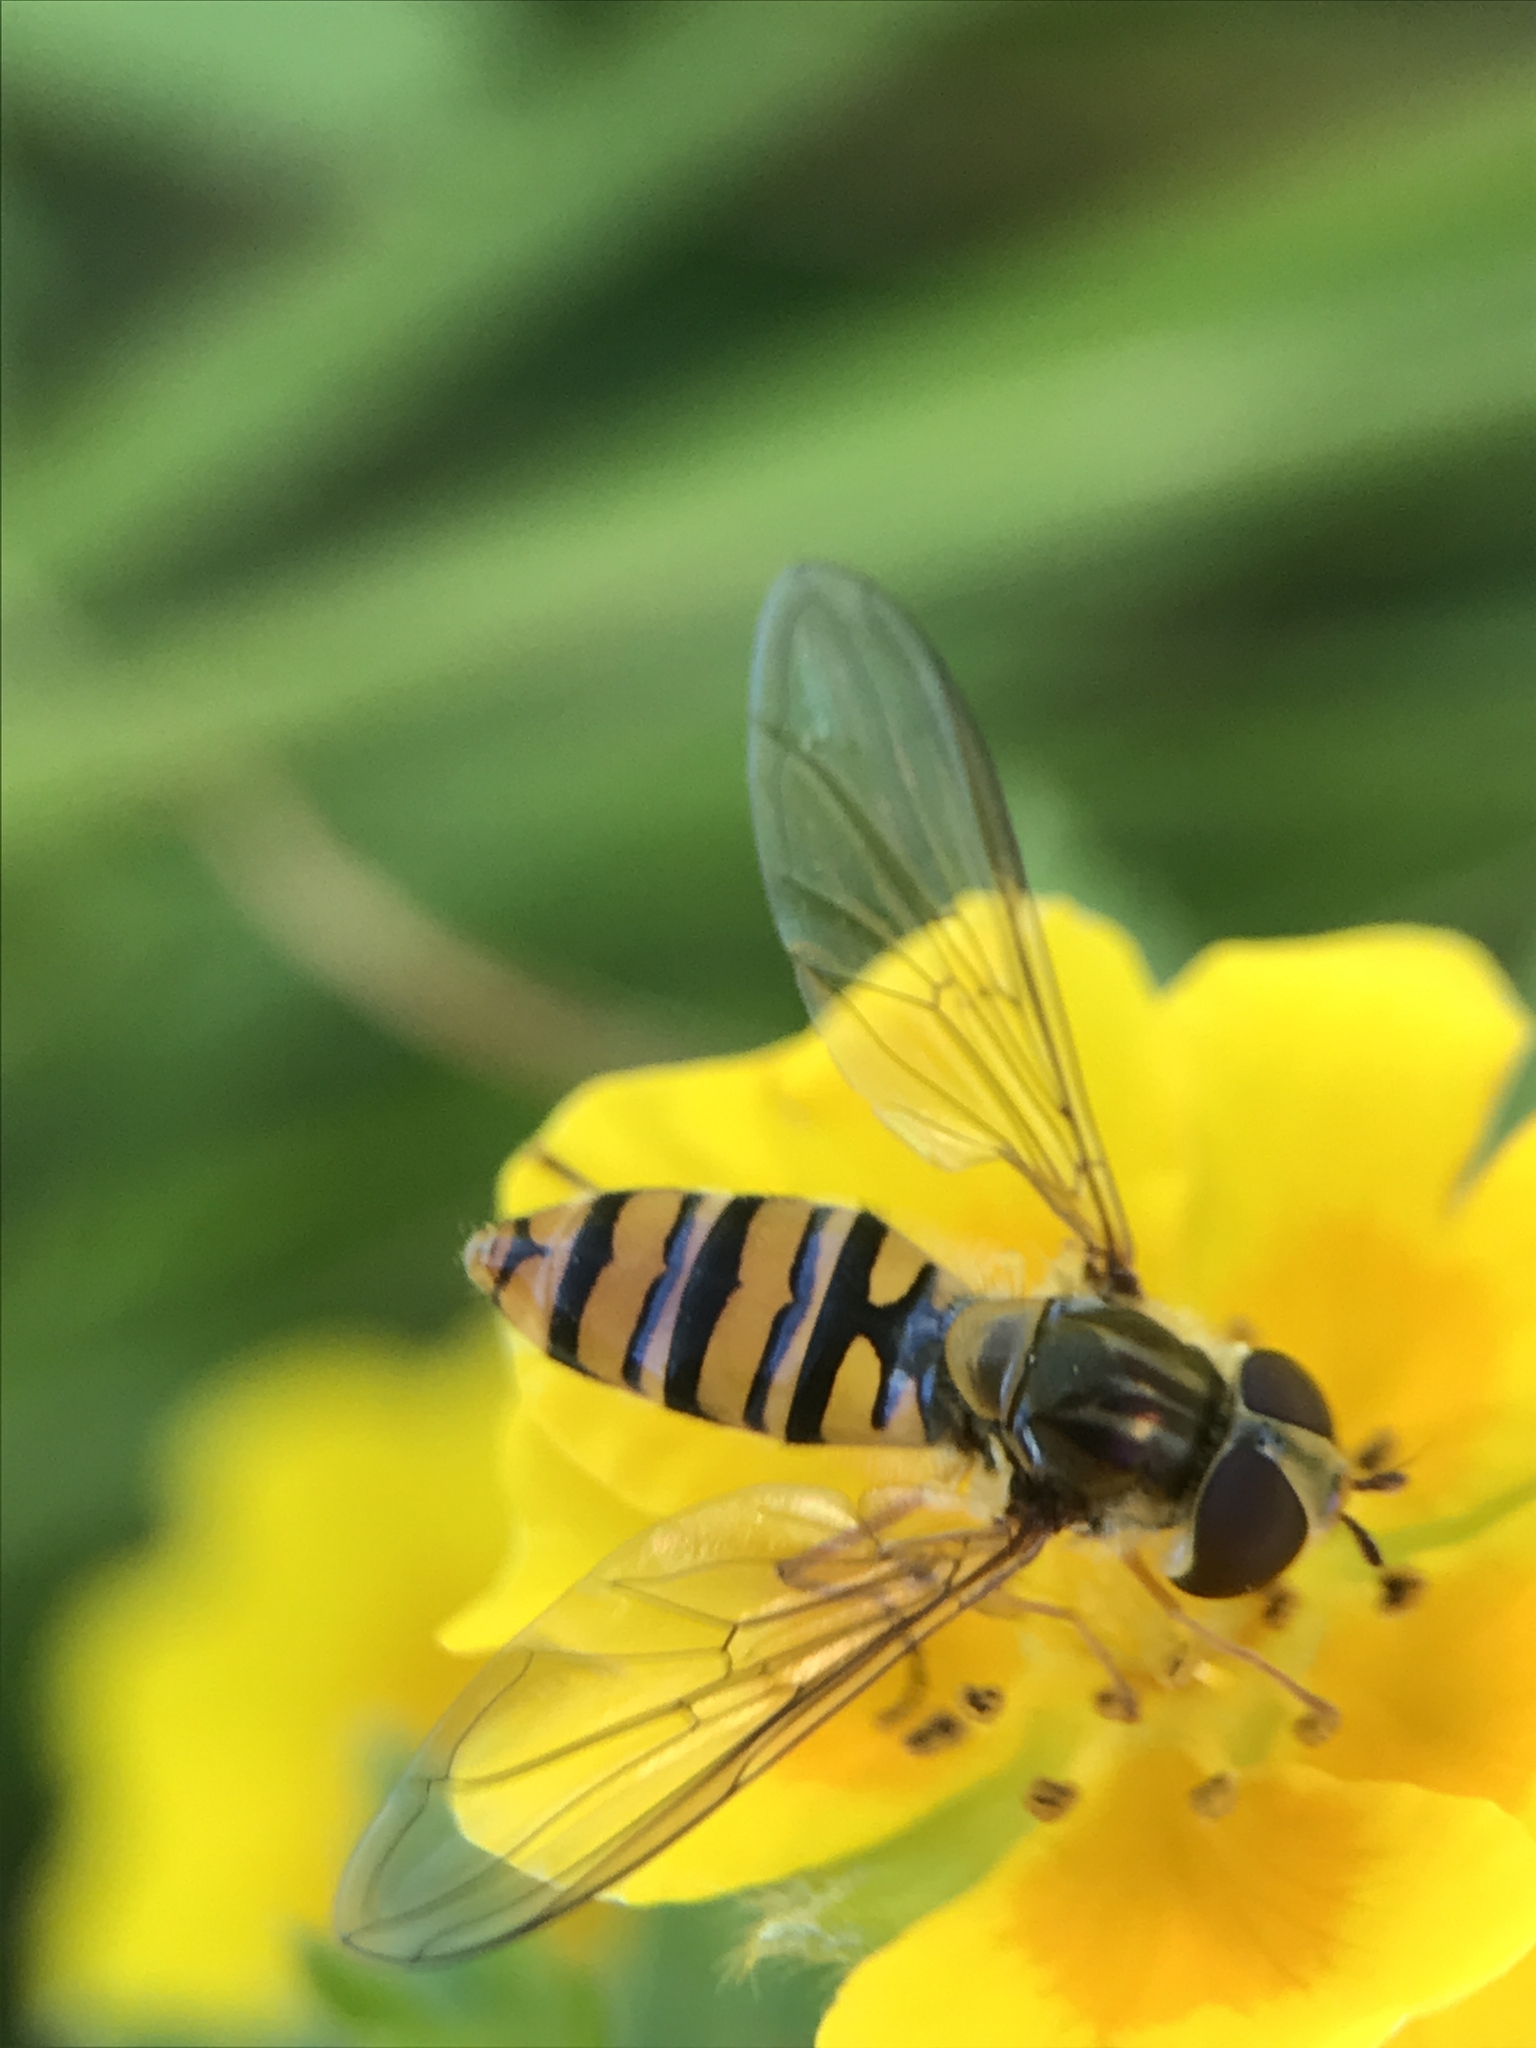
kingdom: Animalia
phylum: Arthropoda
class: Insecta
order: Diptera
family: Syrphidae
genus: Episyrphus
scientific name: Episyrphus balteatus
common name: Marmalade hoverfly
